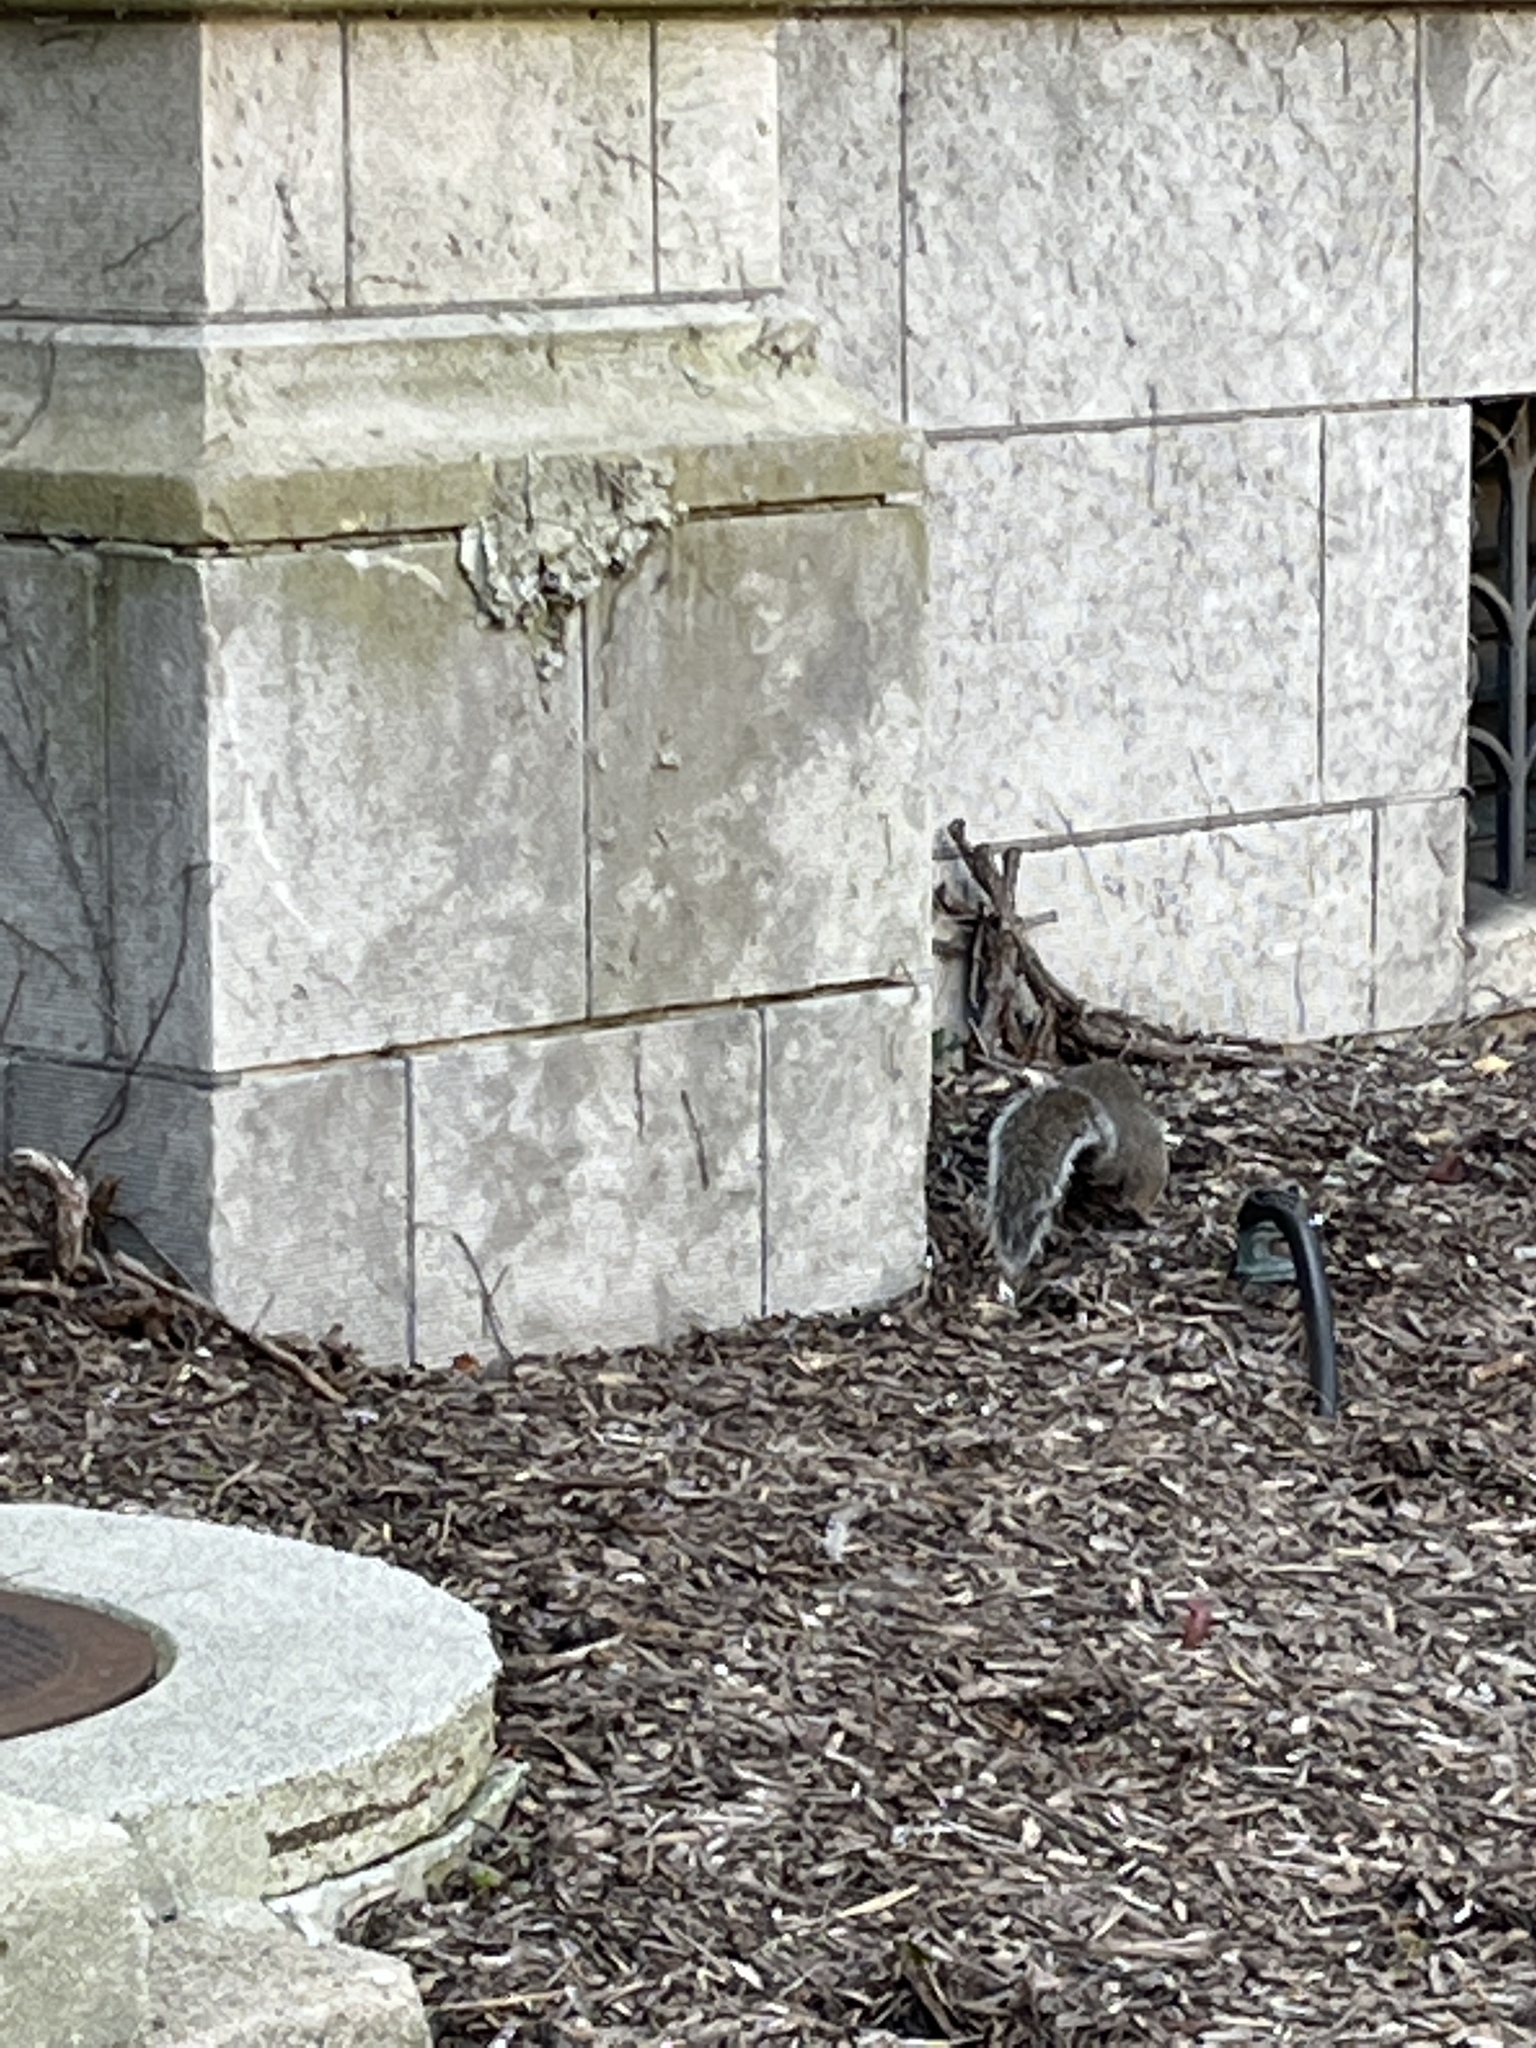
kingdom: Animalia
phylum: Chordata
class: Mammalia
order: Rodentia
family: Sciuridae
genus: Sciurus
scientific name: Sciurus carolinensis
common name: Eastern gray squirrel
